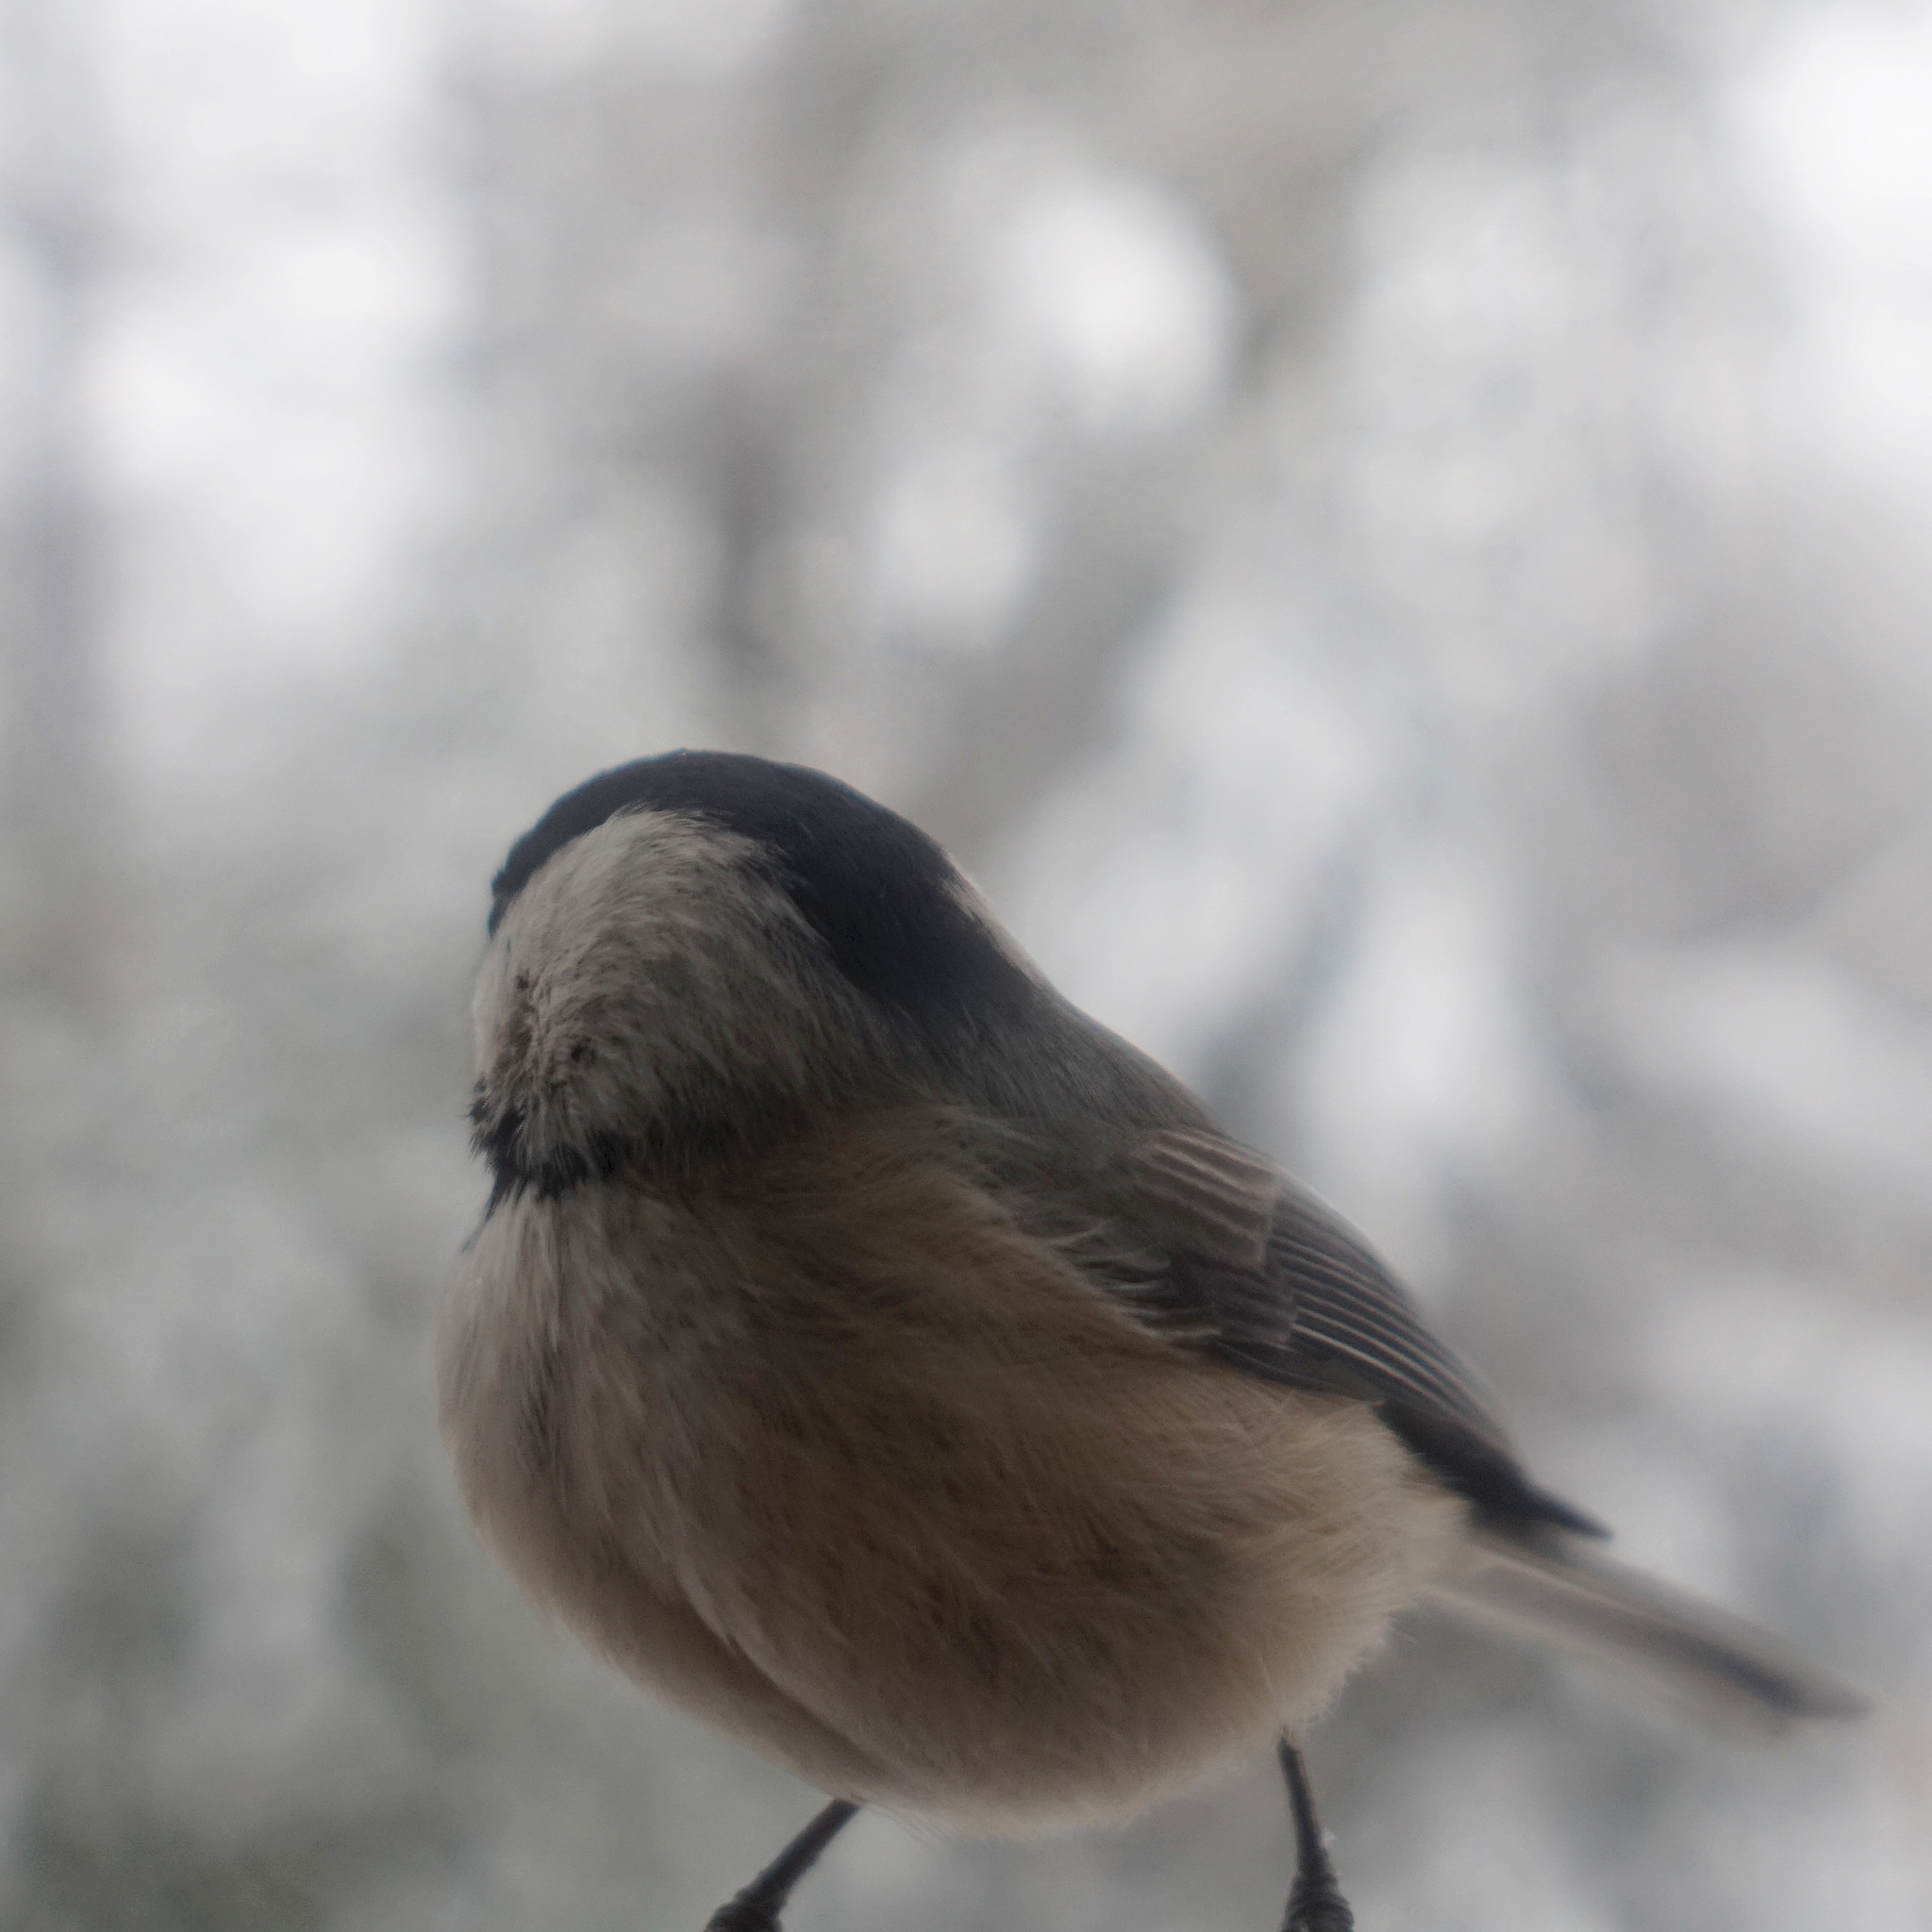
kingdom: Animalia
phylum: Chordata
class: Aves
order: Passeriformes
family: Paridae
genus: Poecile
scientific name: Poecile carolinensis
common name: Carolina chickadee
